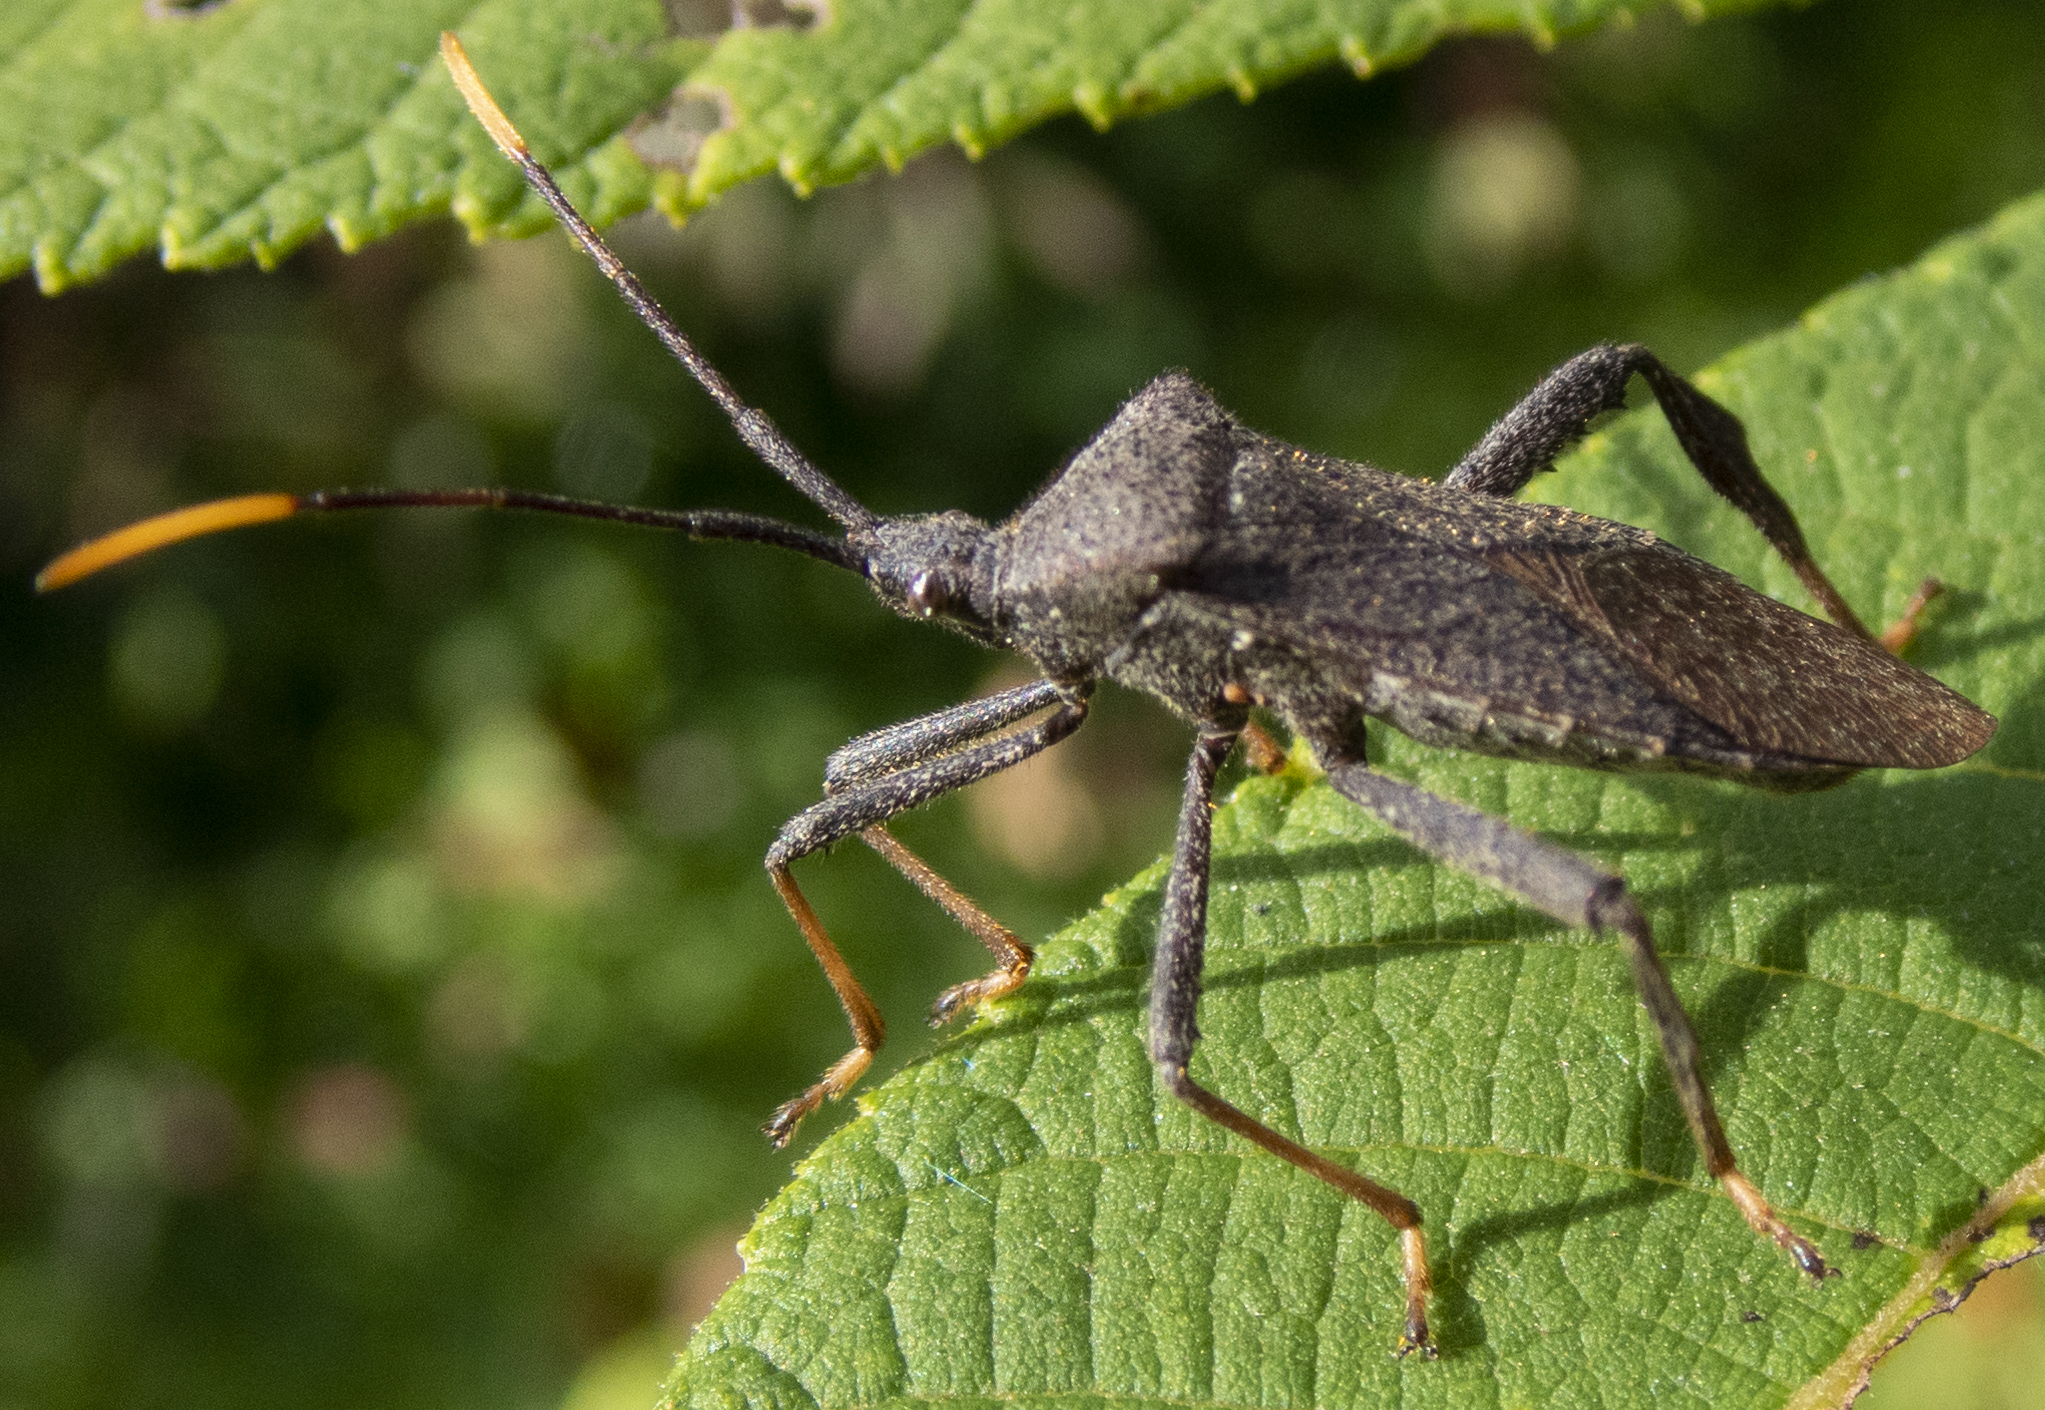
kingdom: Animalia
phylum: Arthropoda
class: Insecta
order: Hemiptera
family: Coreidae
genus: Acanthocephala
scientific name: Acanthocephala terminalis
